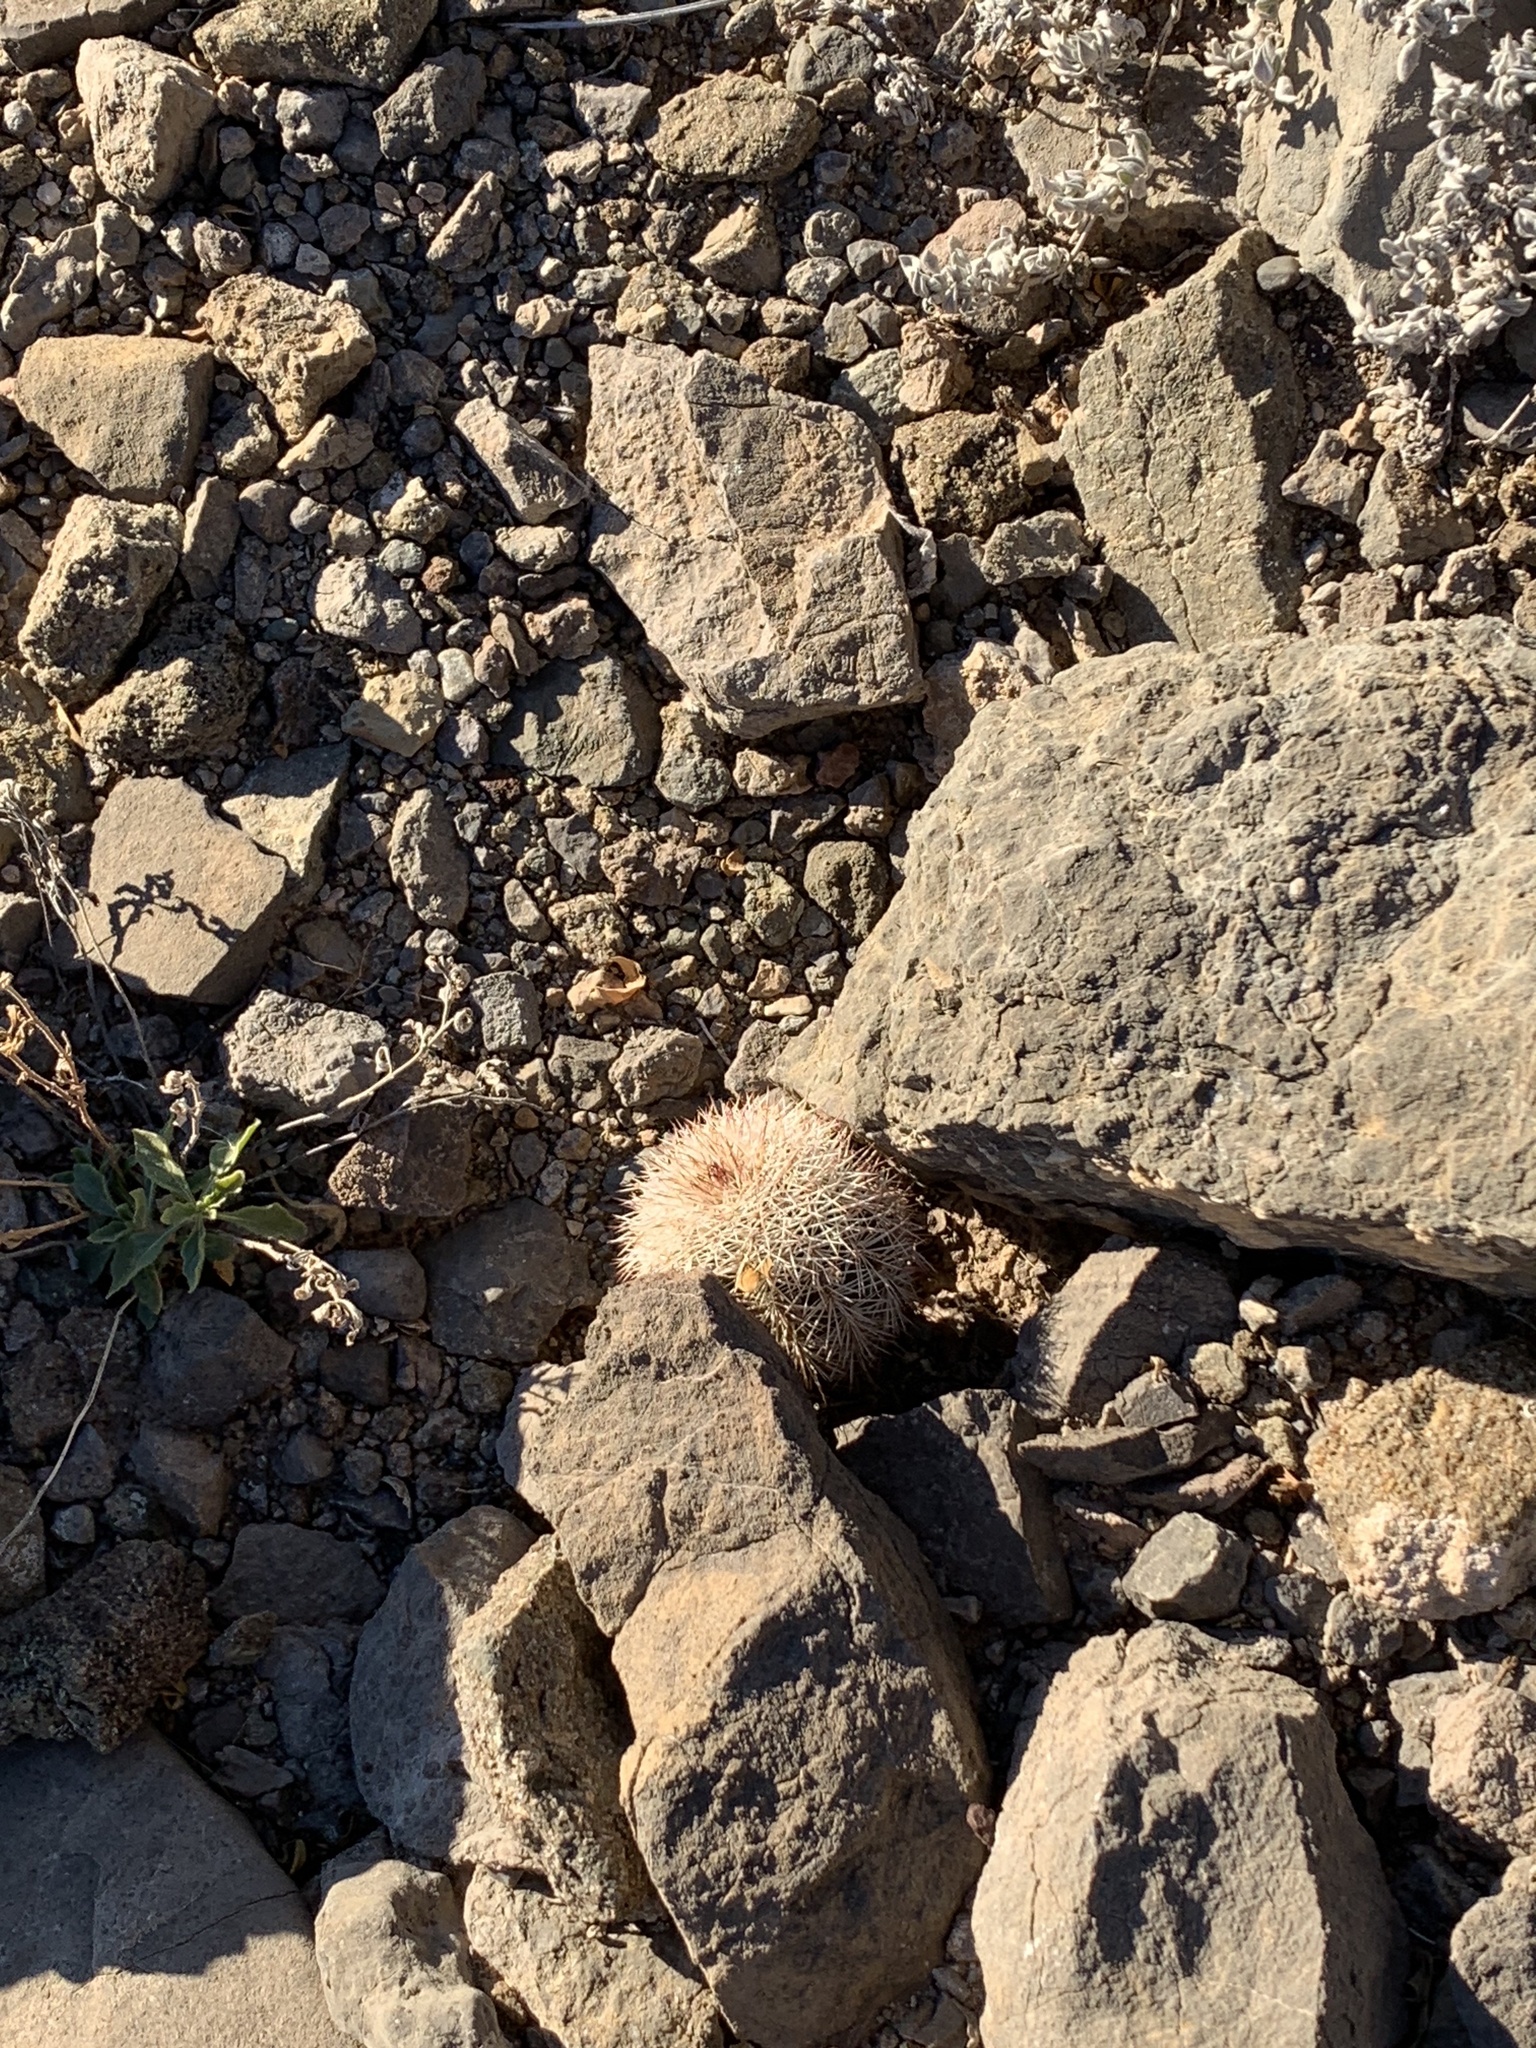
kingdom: Plantae
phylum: Tracheophyta
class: Magnoliopsida
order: Caryophyllales
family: Cactaceae
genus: Echinocereus
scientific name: Echinocereus dasyacanthus
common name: Spiny hedgehog cactus
